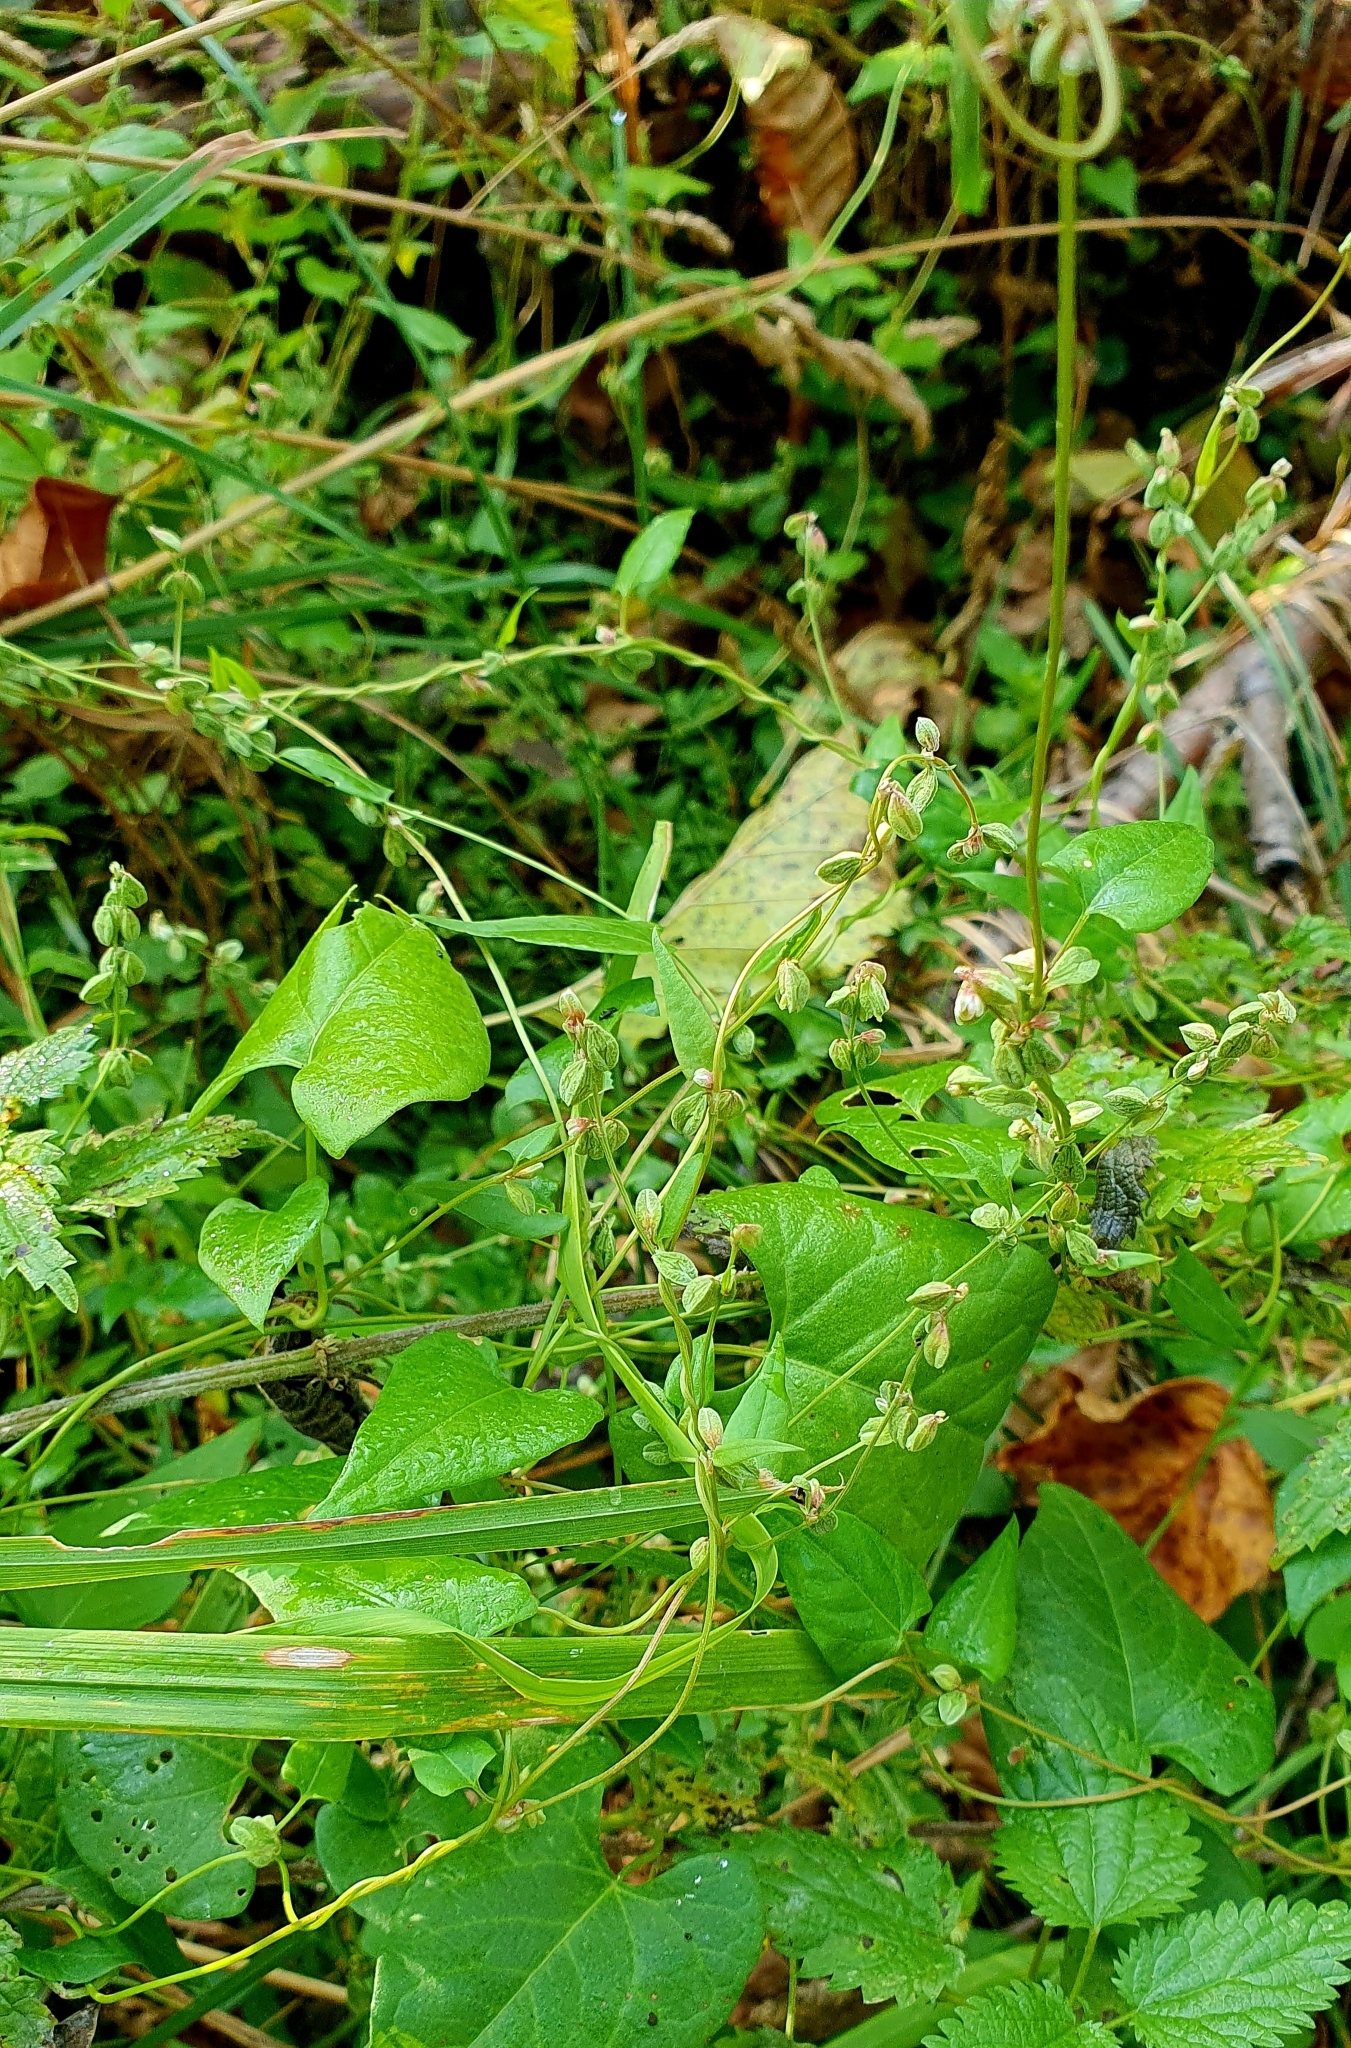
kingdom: Plantae
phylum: Tracheophyta
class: Magnoliopsida
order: Caryophyllales
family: Polygonaceae
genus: Fallopia
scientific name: Fallopia convolvulus
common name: Black bindweed
